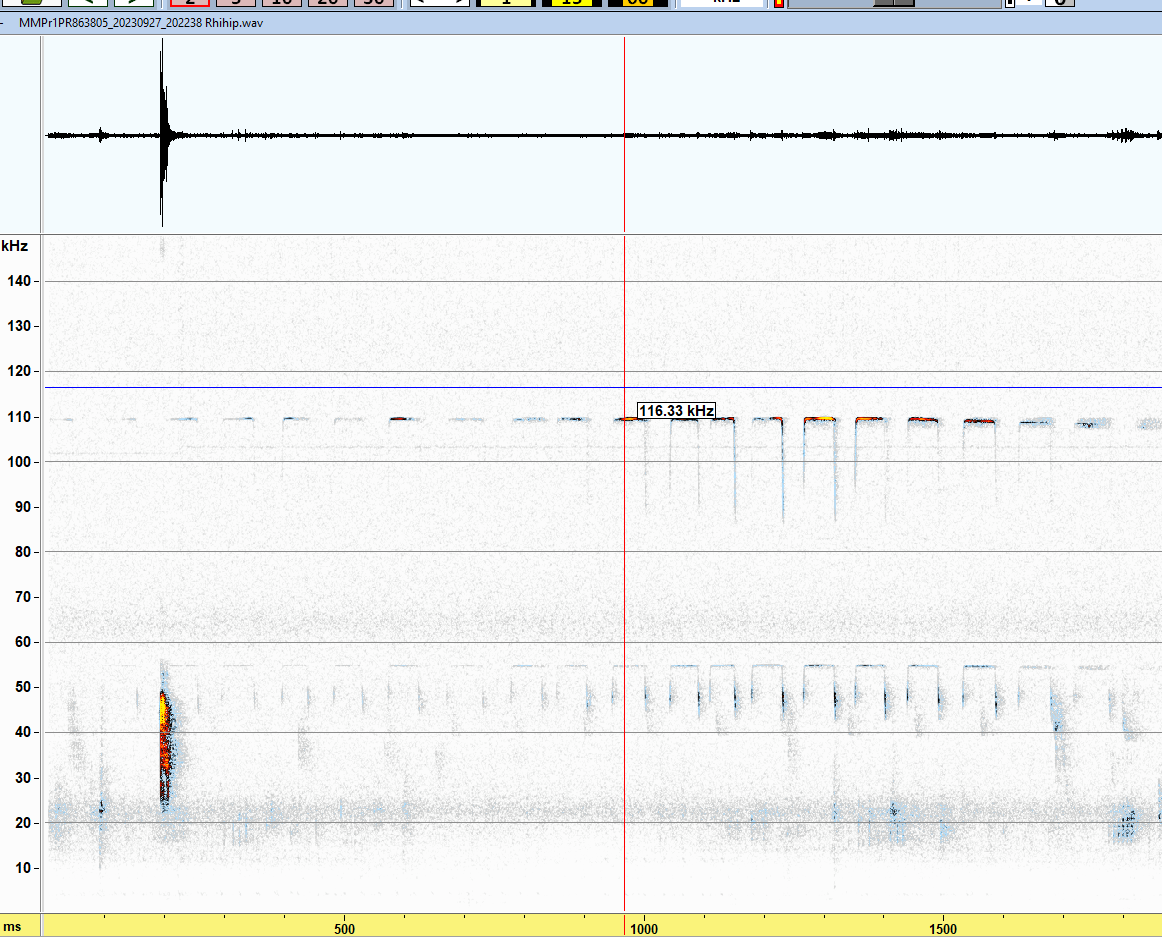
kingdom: Animalia
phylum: Chordata
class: Mammalia
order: Chiroptera
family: Rhinolophidae
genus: Rhinolophus
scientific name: Rhinolophus hipposideros
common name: Lesser horseshoe bat
